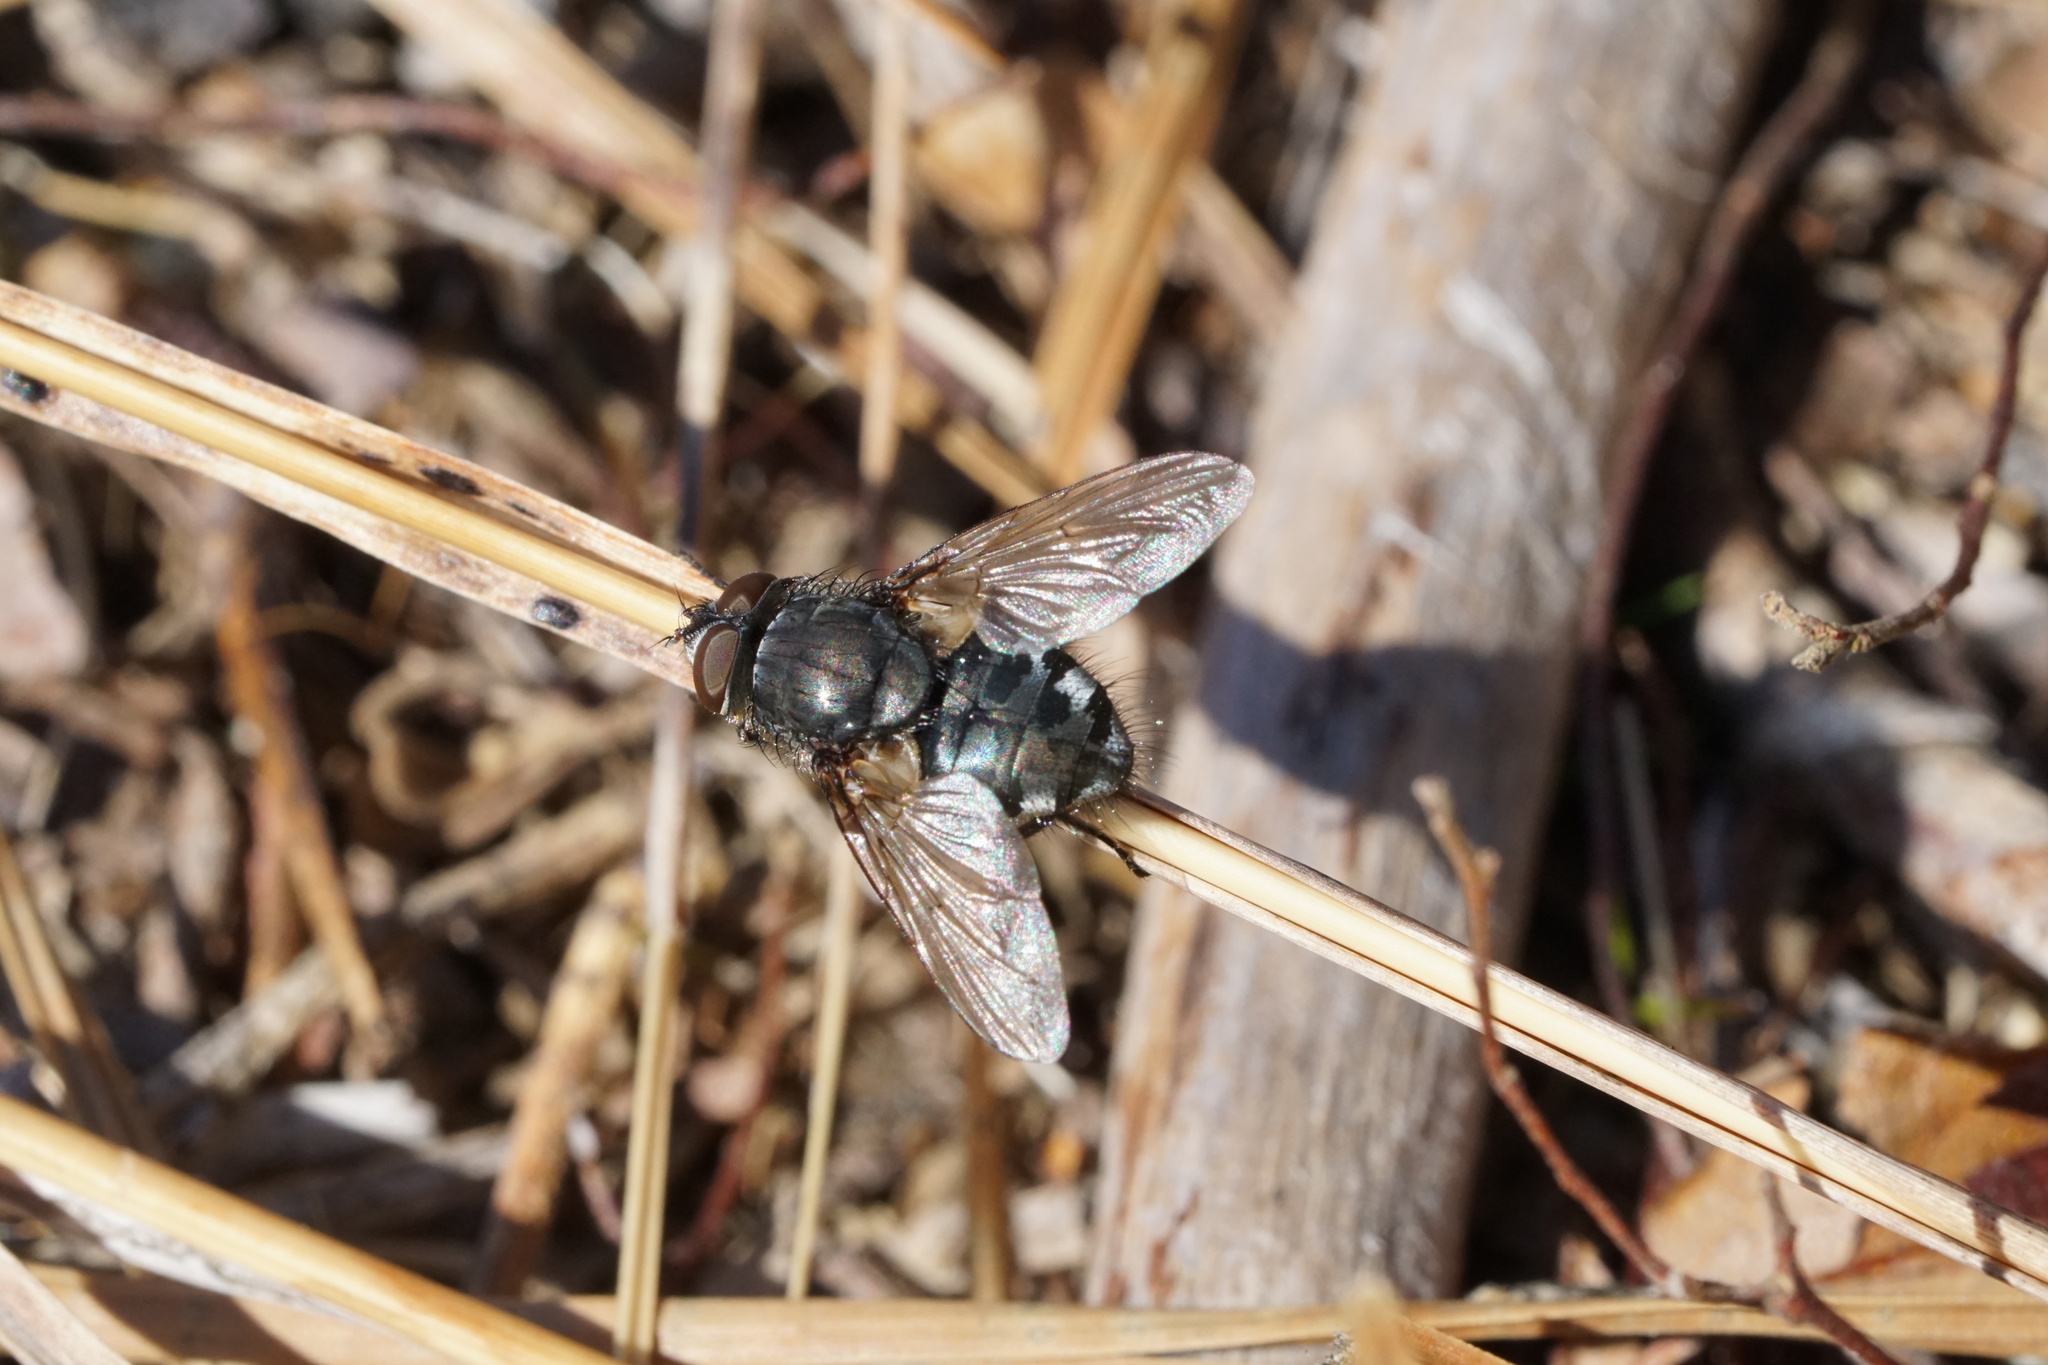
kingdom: Animalia
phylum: Arthropoda
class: Insecta
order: Diptera
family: Polleniidae
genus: Pollenia
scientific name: Pollenia
